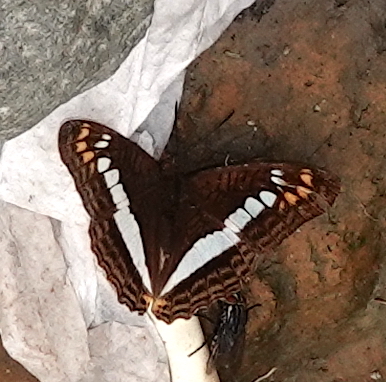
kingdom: Animalia
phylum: Arthropoda
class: Insecta
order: Lepidoptera
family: Nymphalidae
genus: Limenitis
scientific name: Limenitis alala
